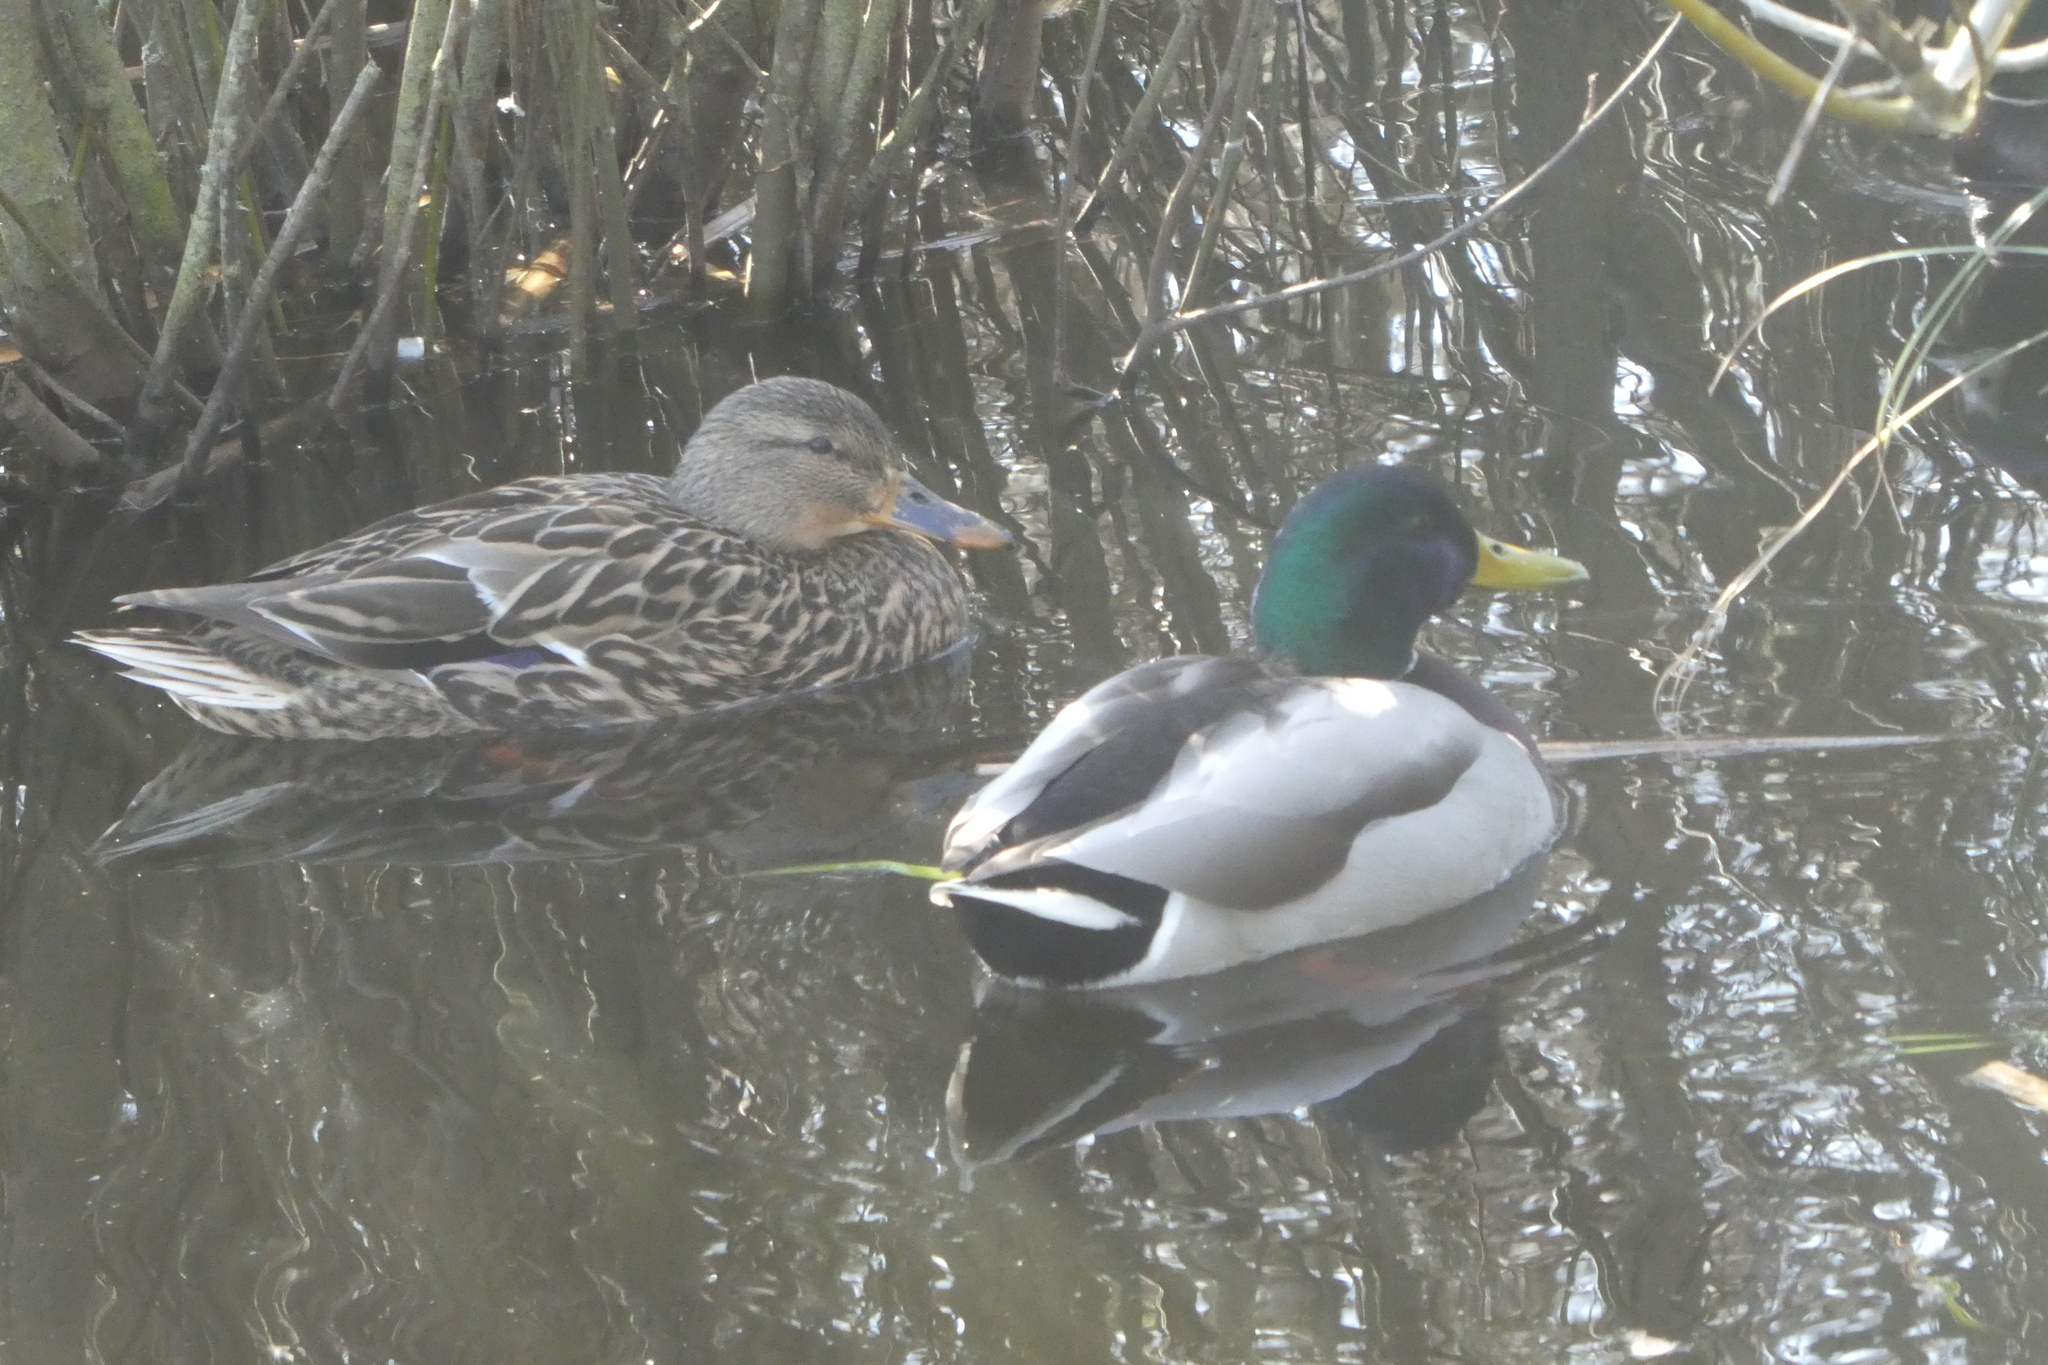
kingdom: Animalia
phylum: Chordata
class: Aves
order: Anseriformes
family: Anatidae
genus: Anas
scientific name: Anas platyrhynchos
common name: Mallard
